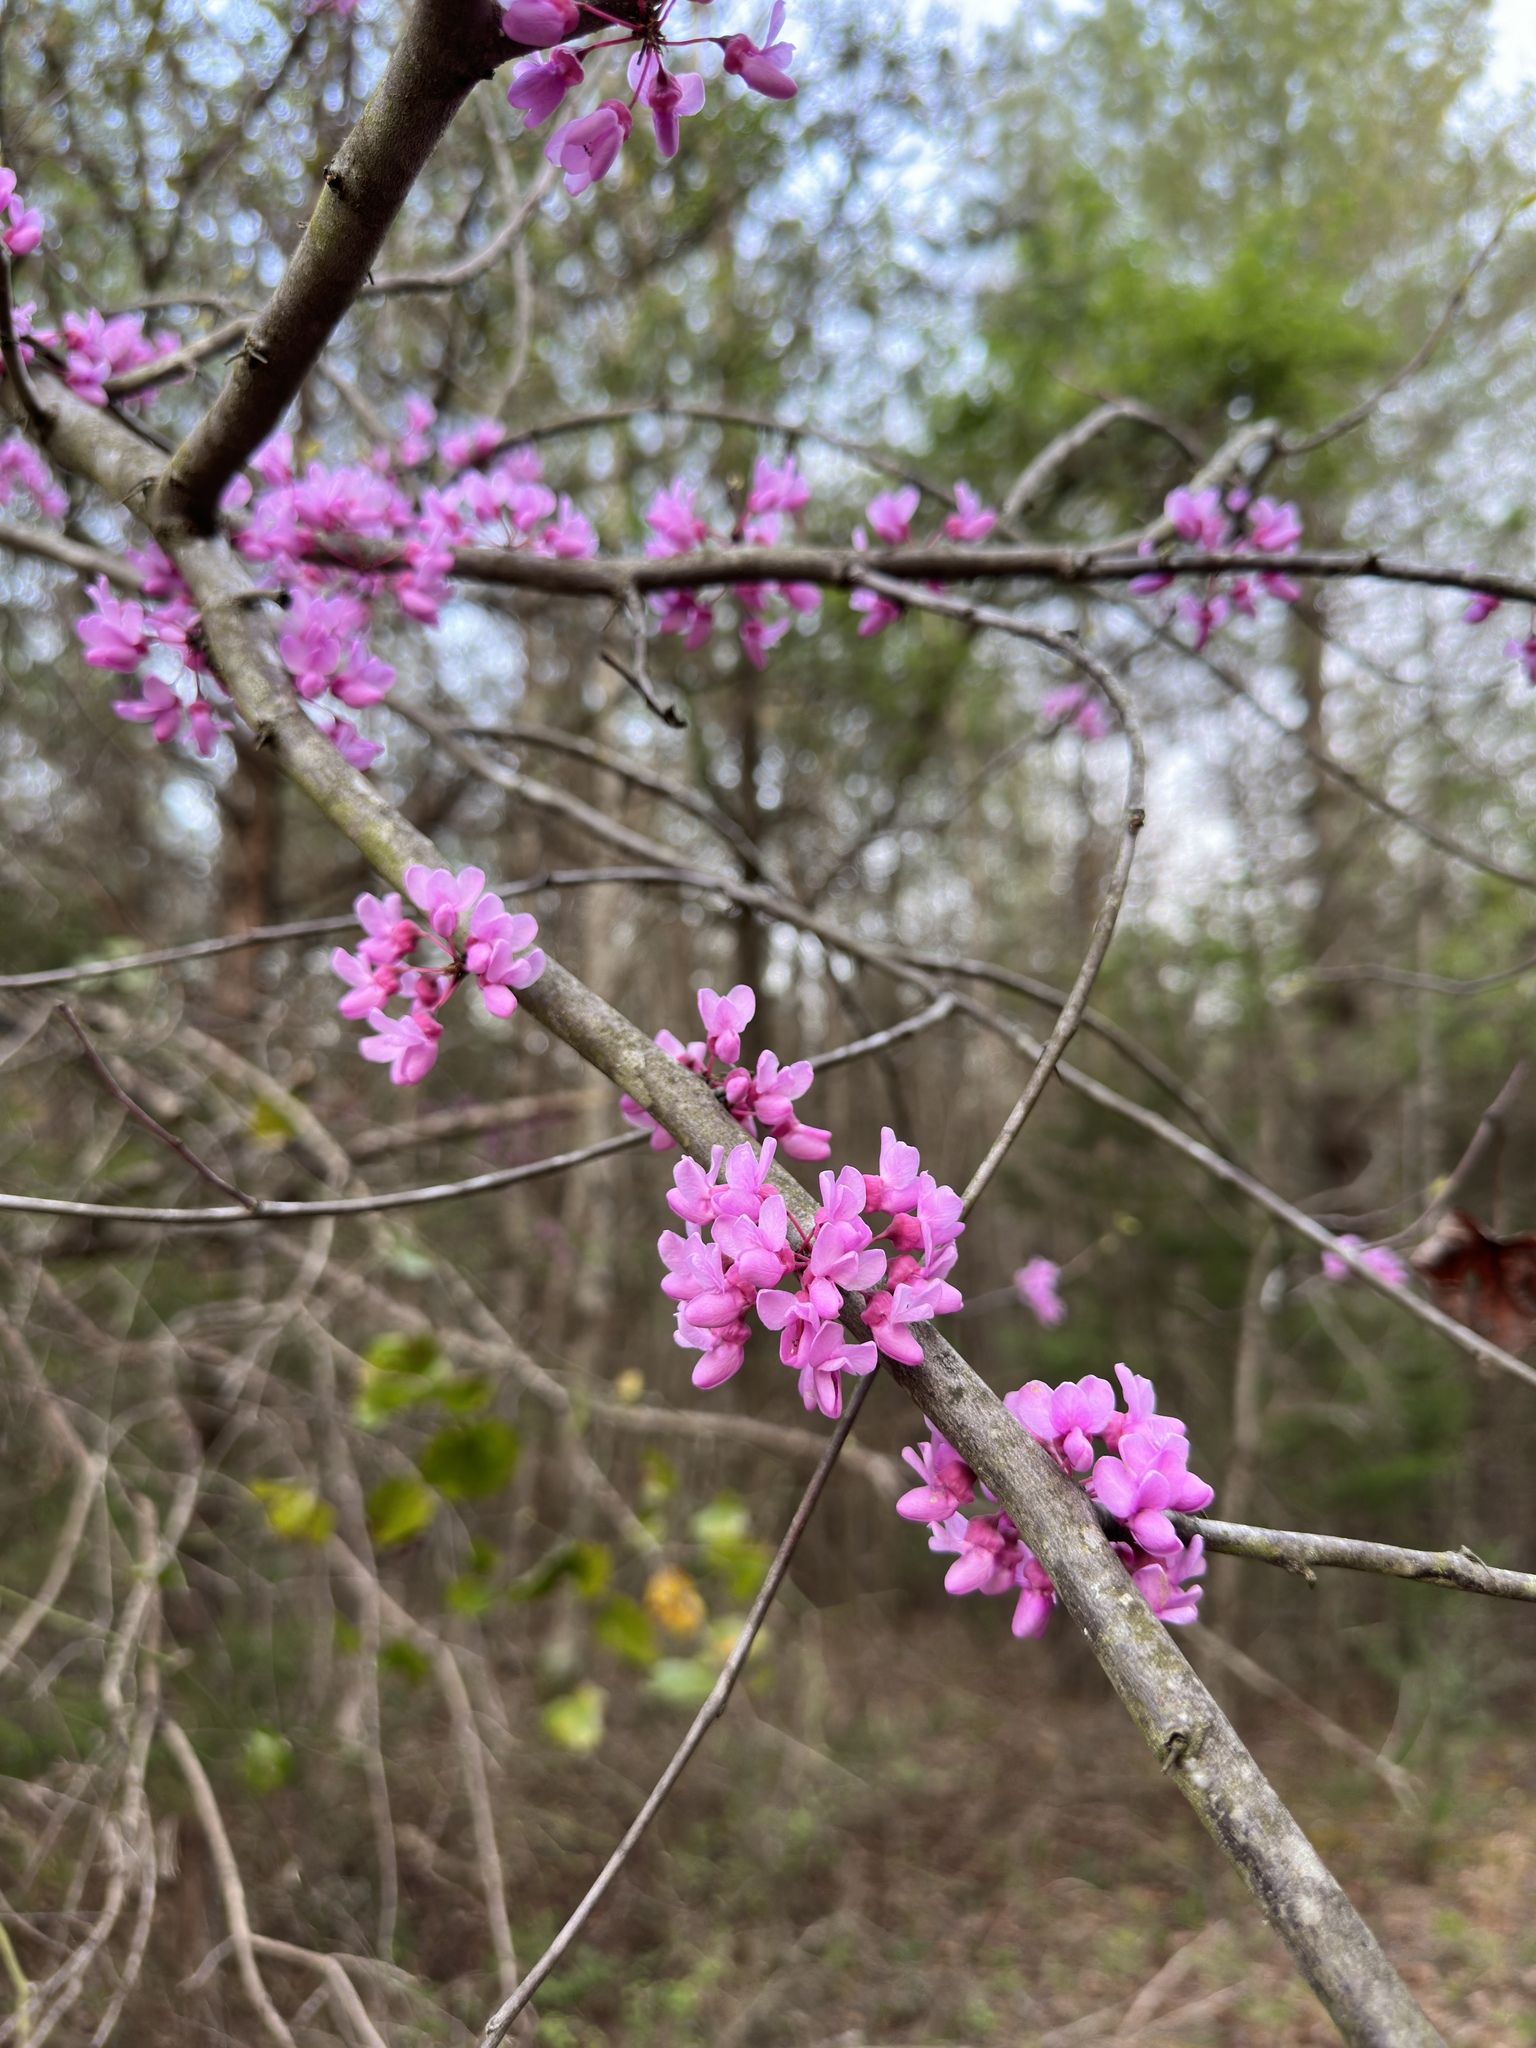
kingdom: Plantae
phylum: Tracheophyta
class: Magnoliopsida
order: Fabales
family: Fabaceae
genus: Cercis
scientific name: Cercis canadensis
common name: Eastern redbud
